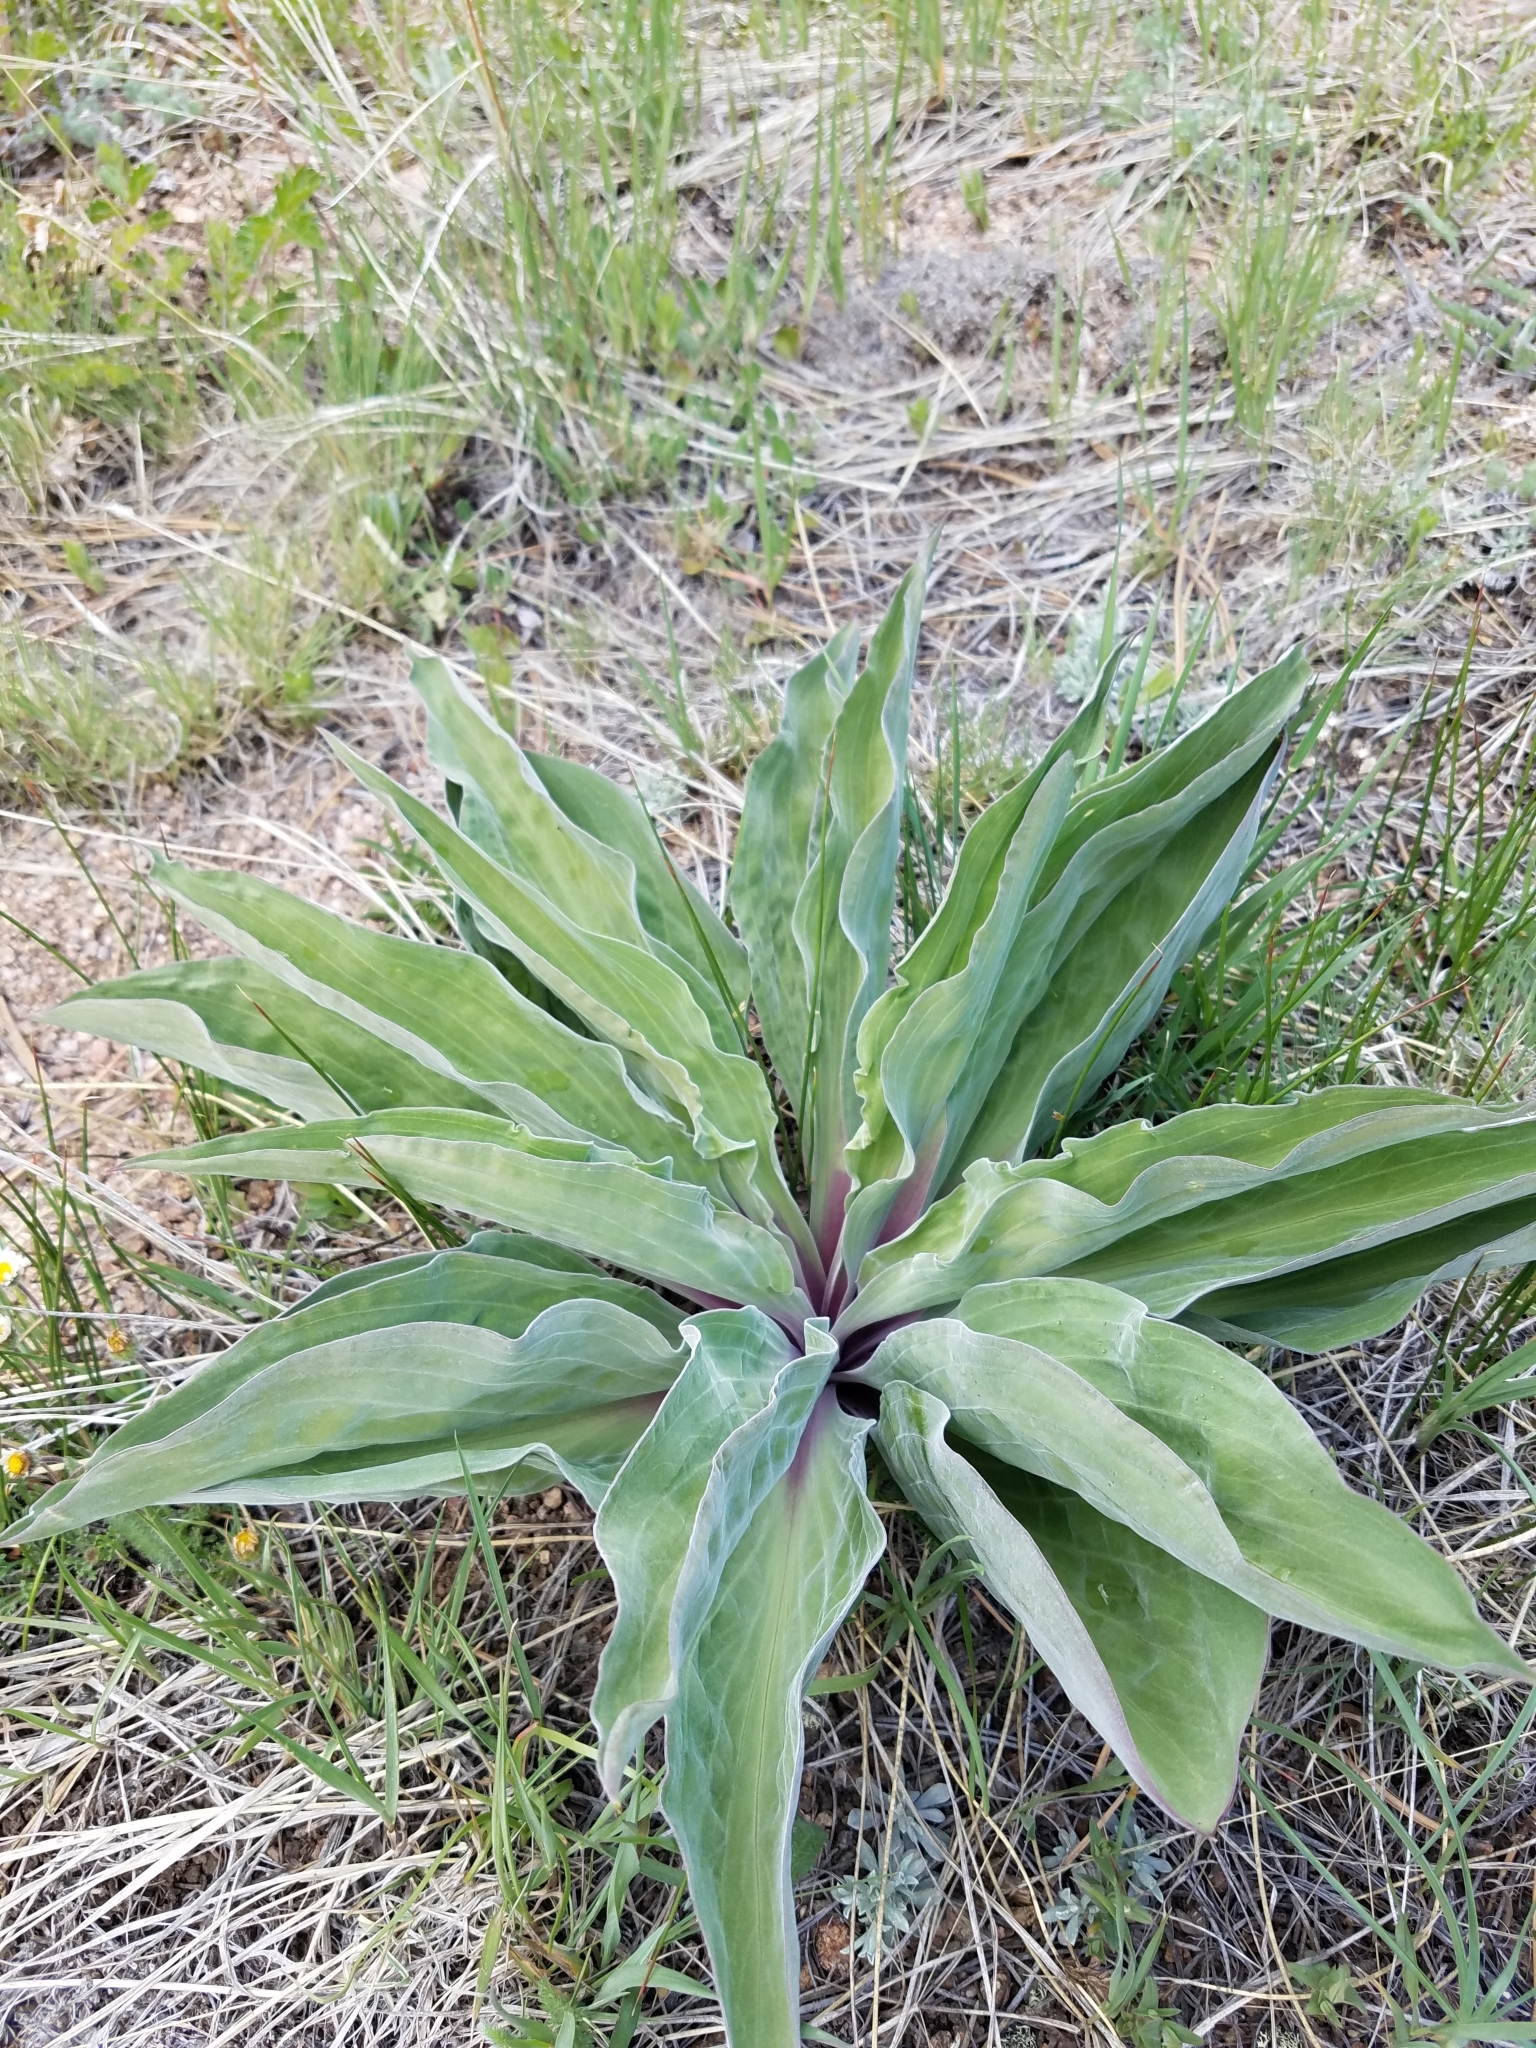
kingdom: Plantae
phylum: Tracheophyta
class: Magnoliopsida
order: Gentianales
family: Gentianaceae
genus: Frasera
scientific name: Frasera speciosa
